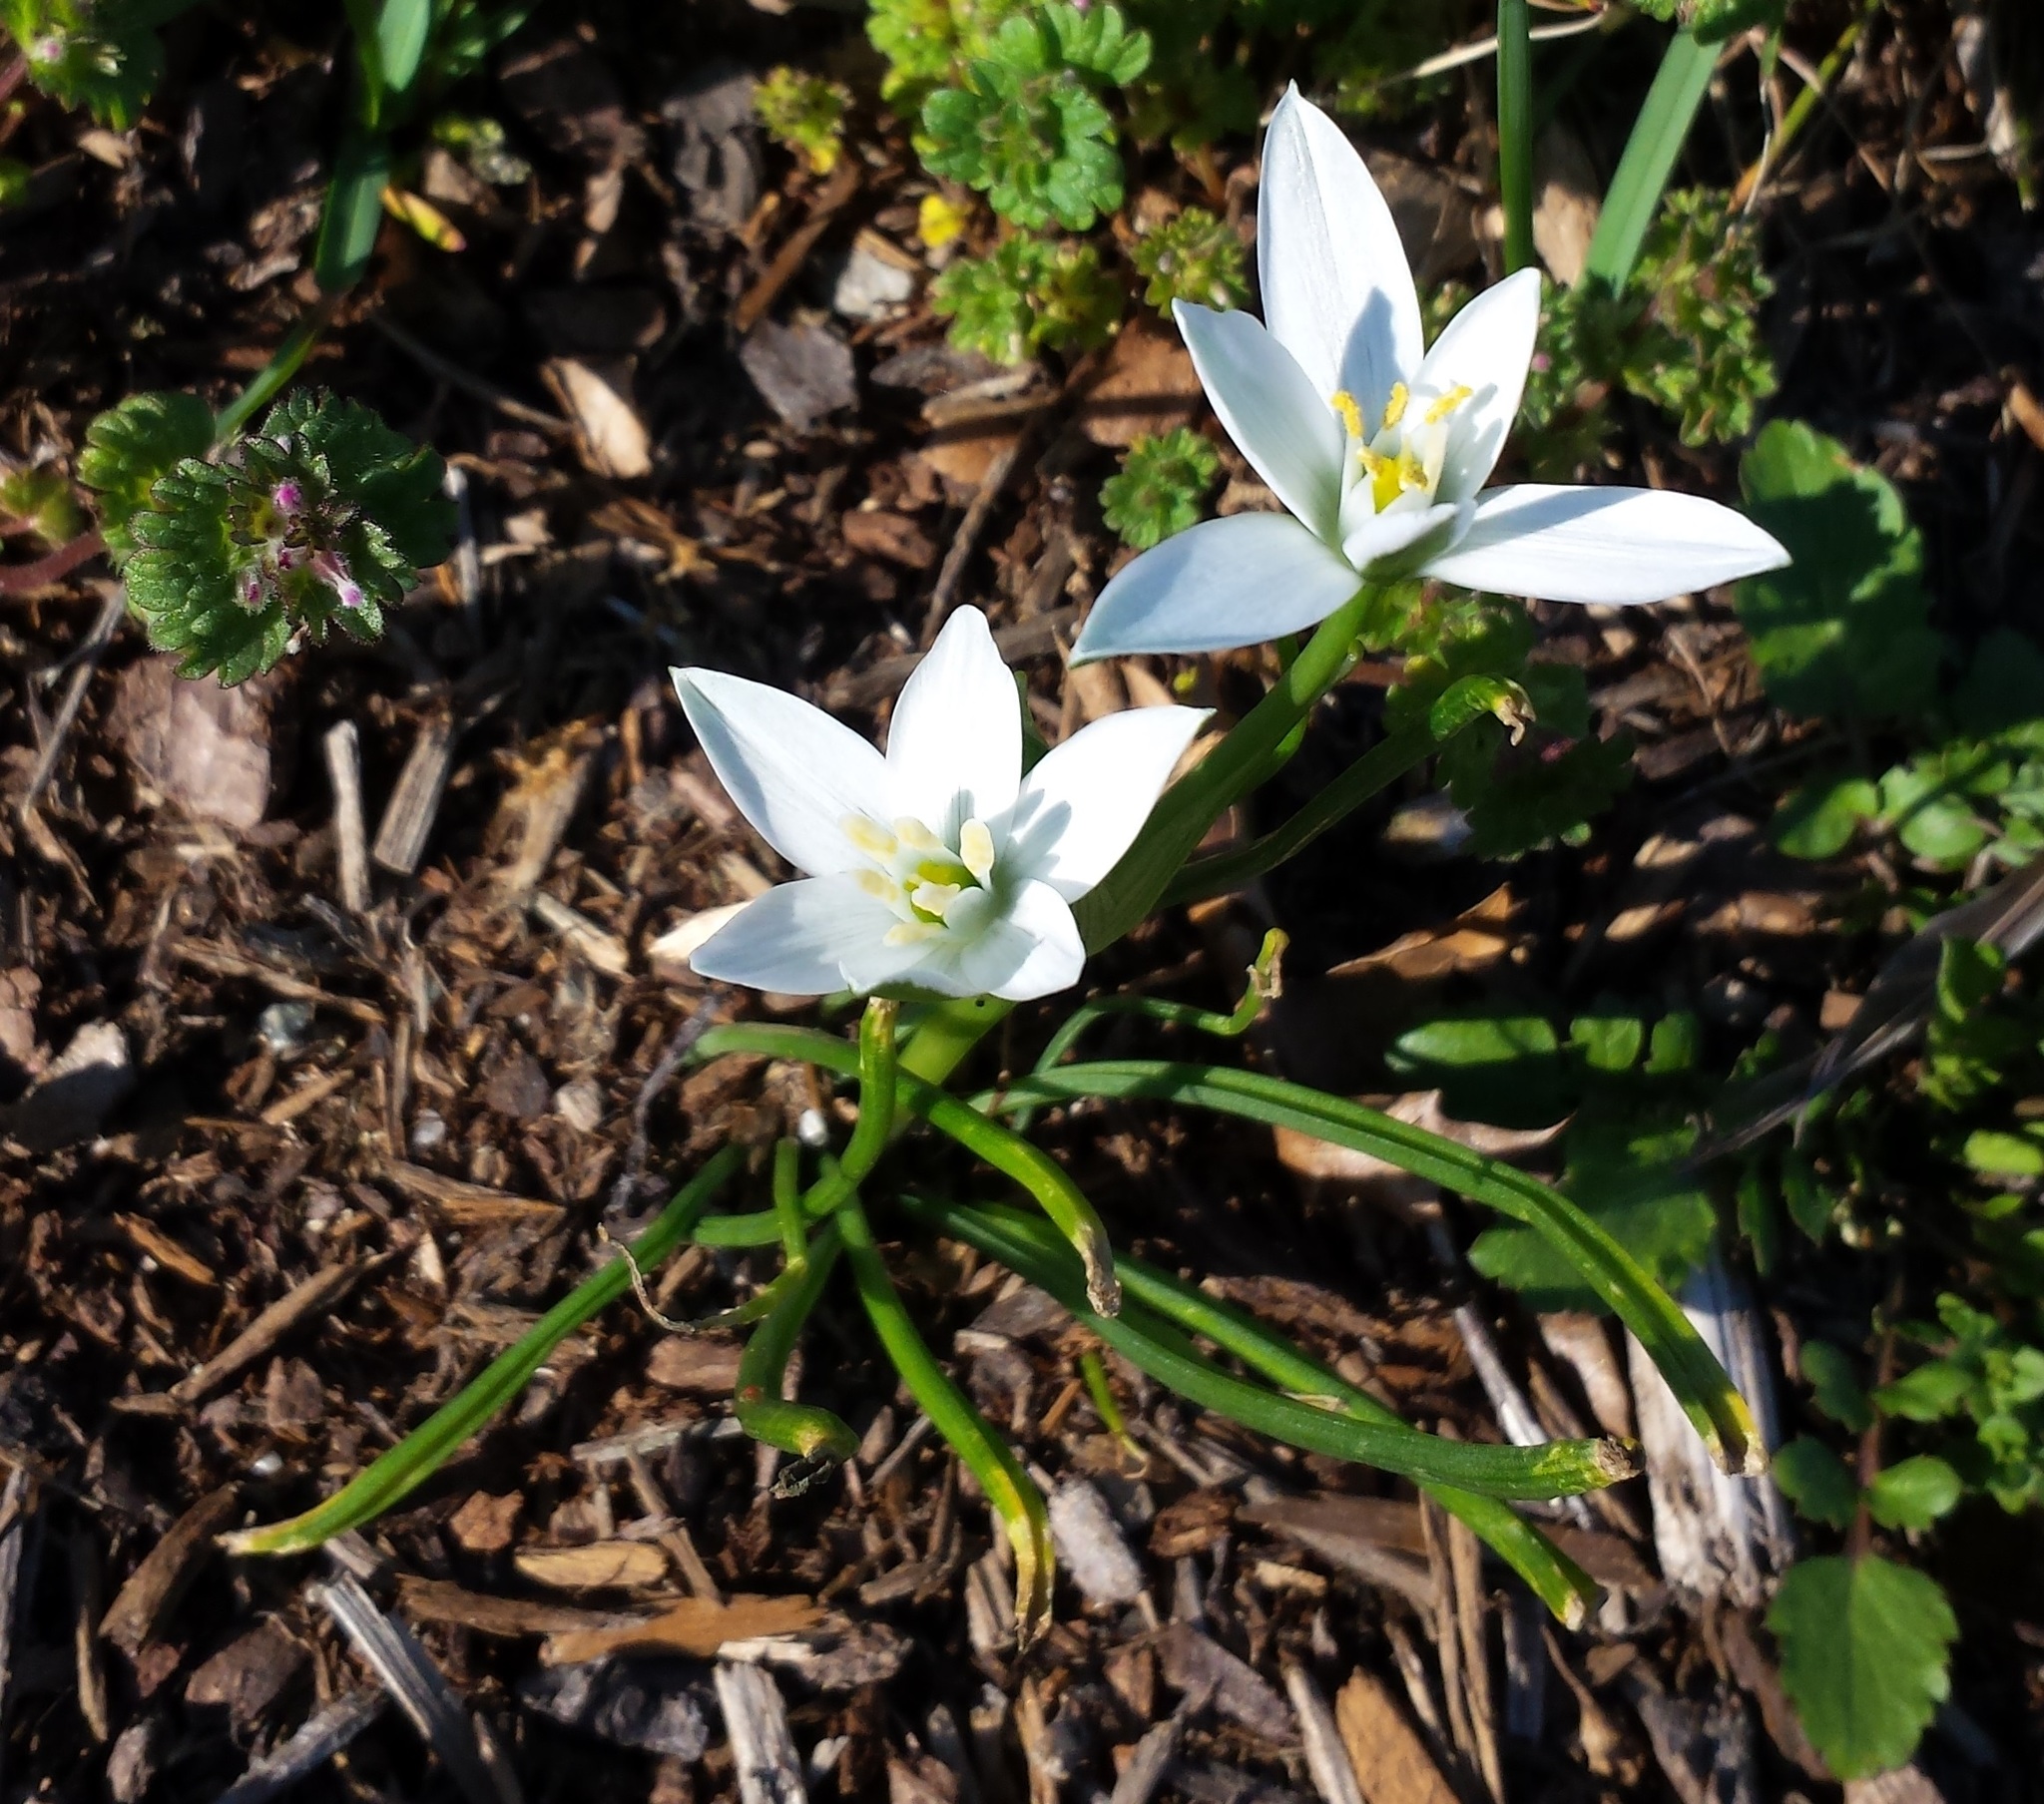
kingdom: Plantae
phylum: Tracheophyta
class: Liliopsida
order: Asparagales
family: Asparagaceae
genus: Ornithogalum
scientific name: Ornithogalum umbellatum
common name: Garden star-of-bethlehem
